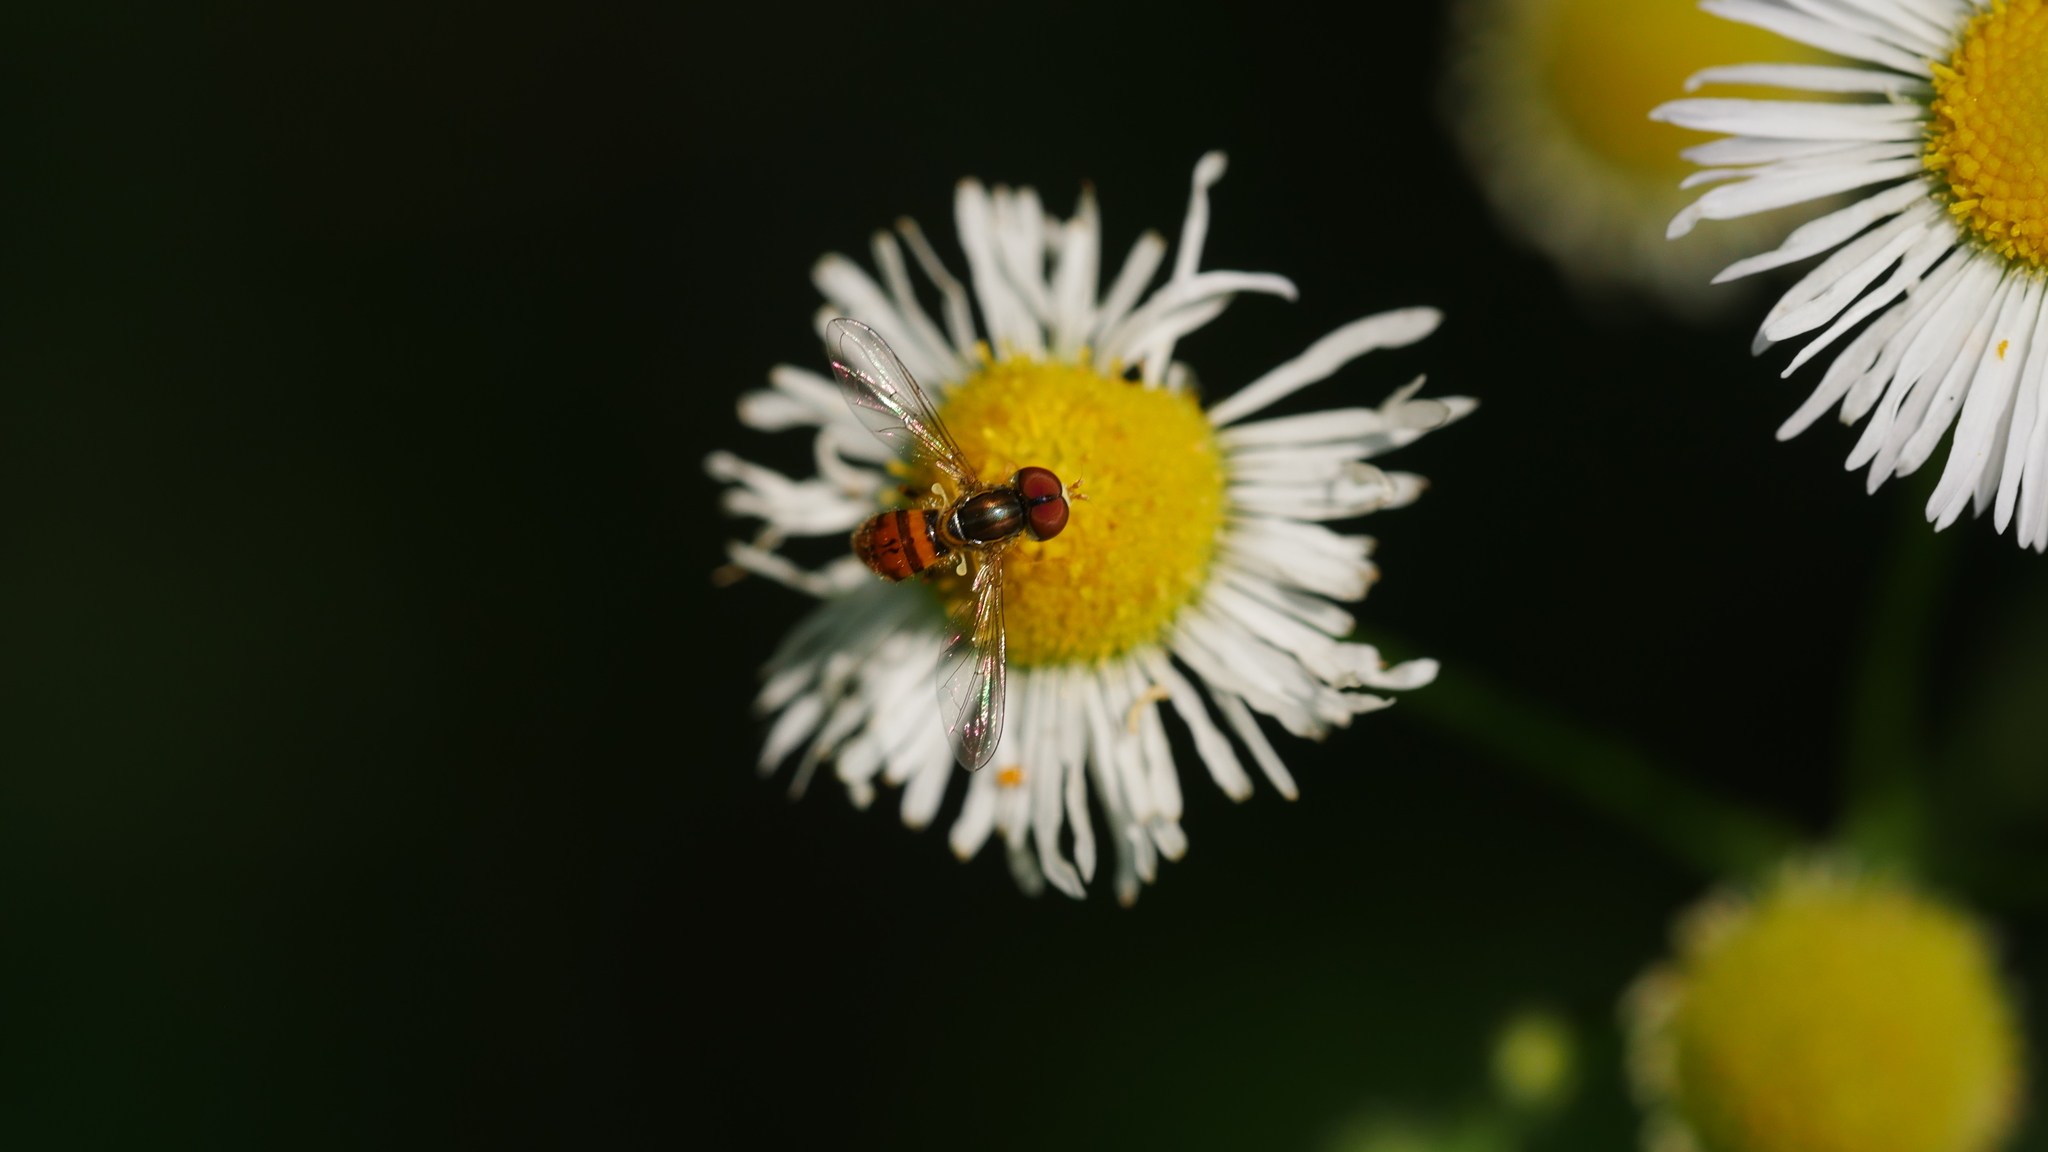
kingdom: Animalia
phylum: Arthropoda
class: Insecta
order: Diptera
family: Syrphidae
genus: Toxomerus
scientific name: Toxomerus boscii
